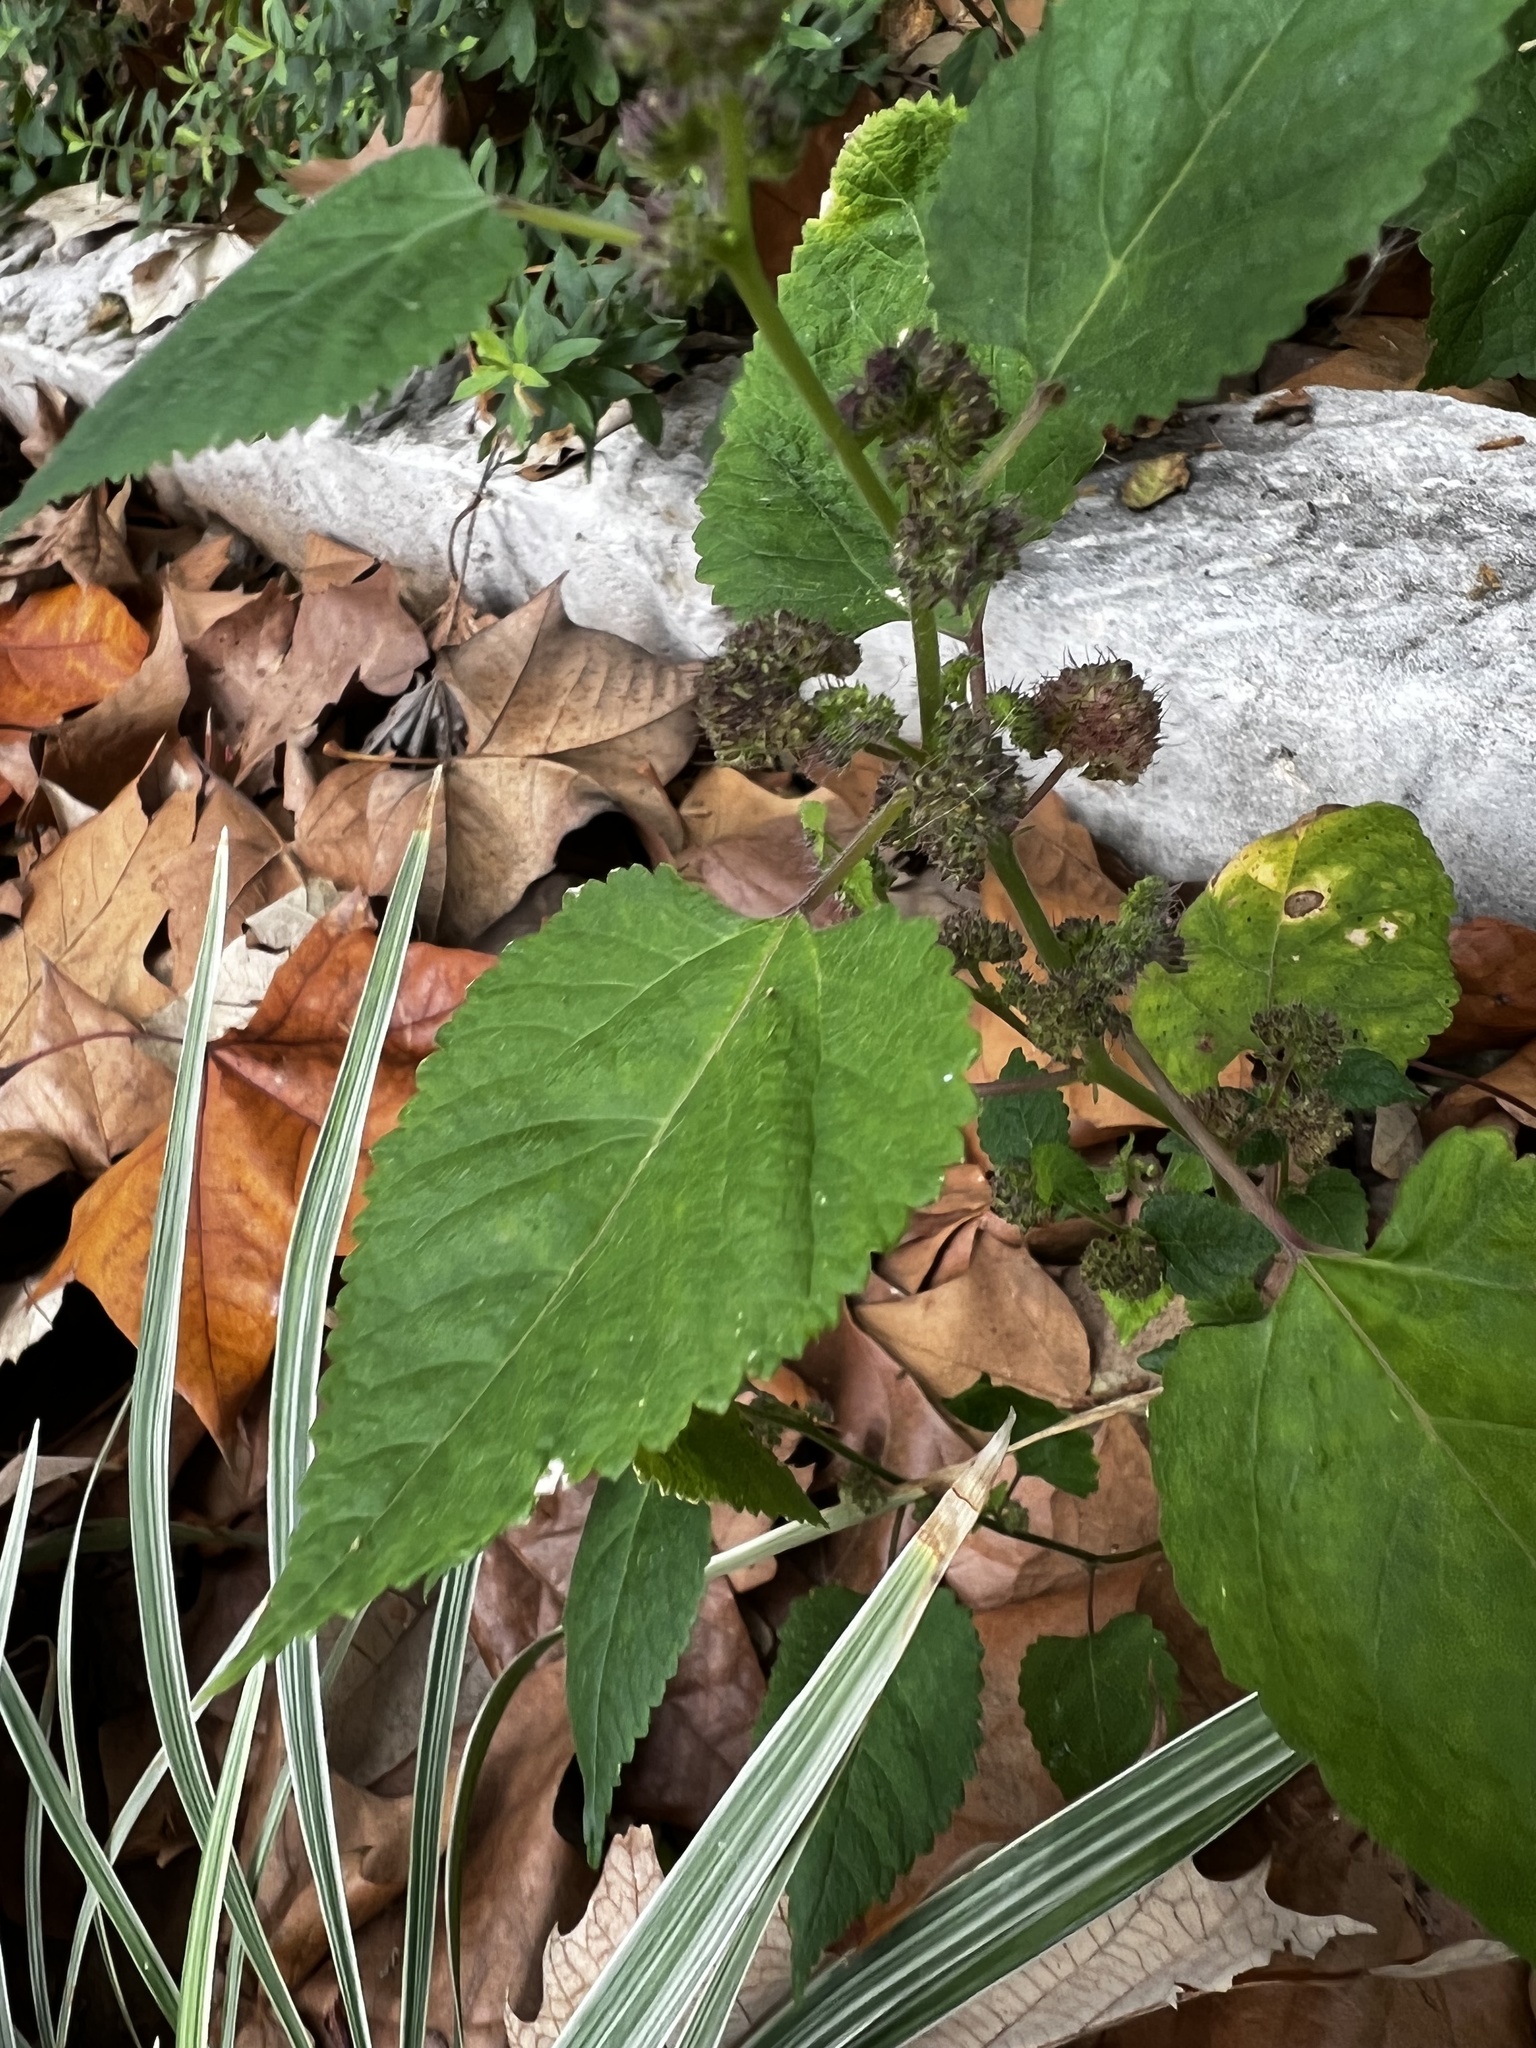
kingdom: Plantae
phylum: Tracheophyta
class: Magnoliopsida
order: Rosales
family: Moraceae
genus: Fatoua
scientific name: Fatoua villosa
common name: Hairy crabweed
